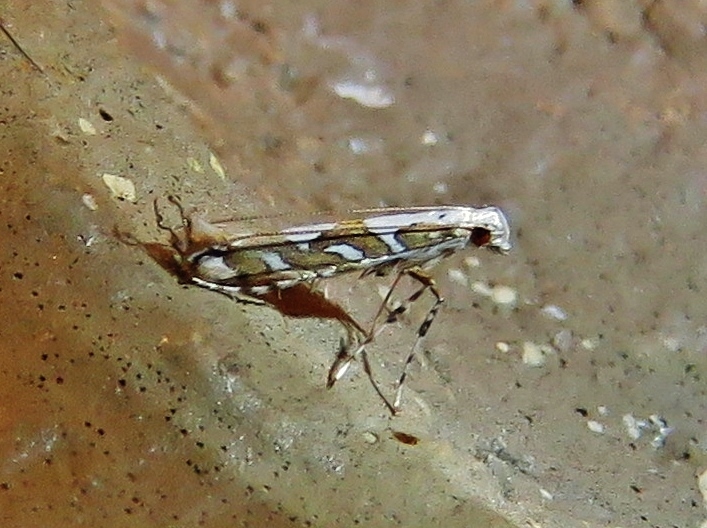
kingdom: Animalia
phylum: Arthropoda
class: Insecta
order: Lepidoptera
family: Gracillariidae
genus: Acrocercops
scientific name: Acrocercops albinatella
